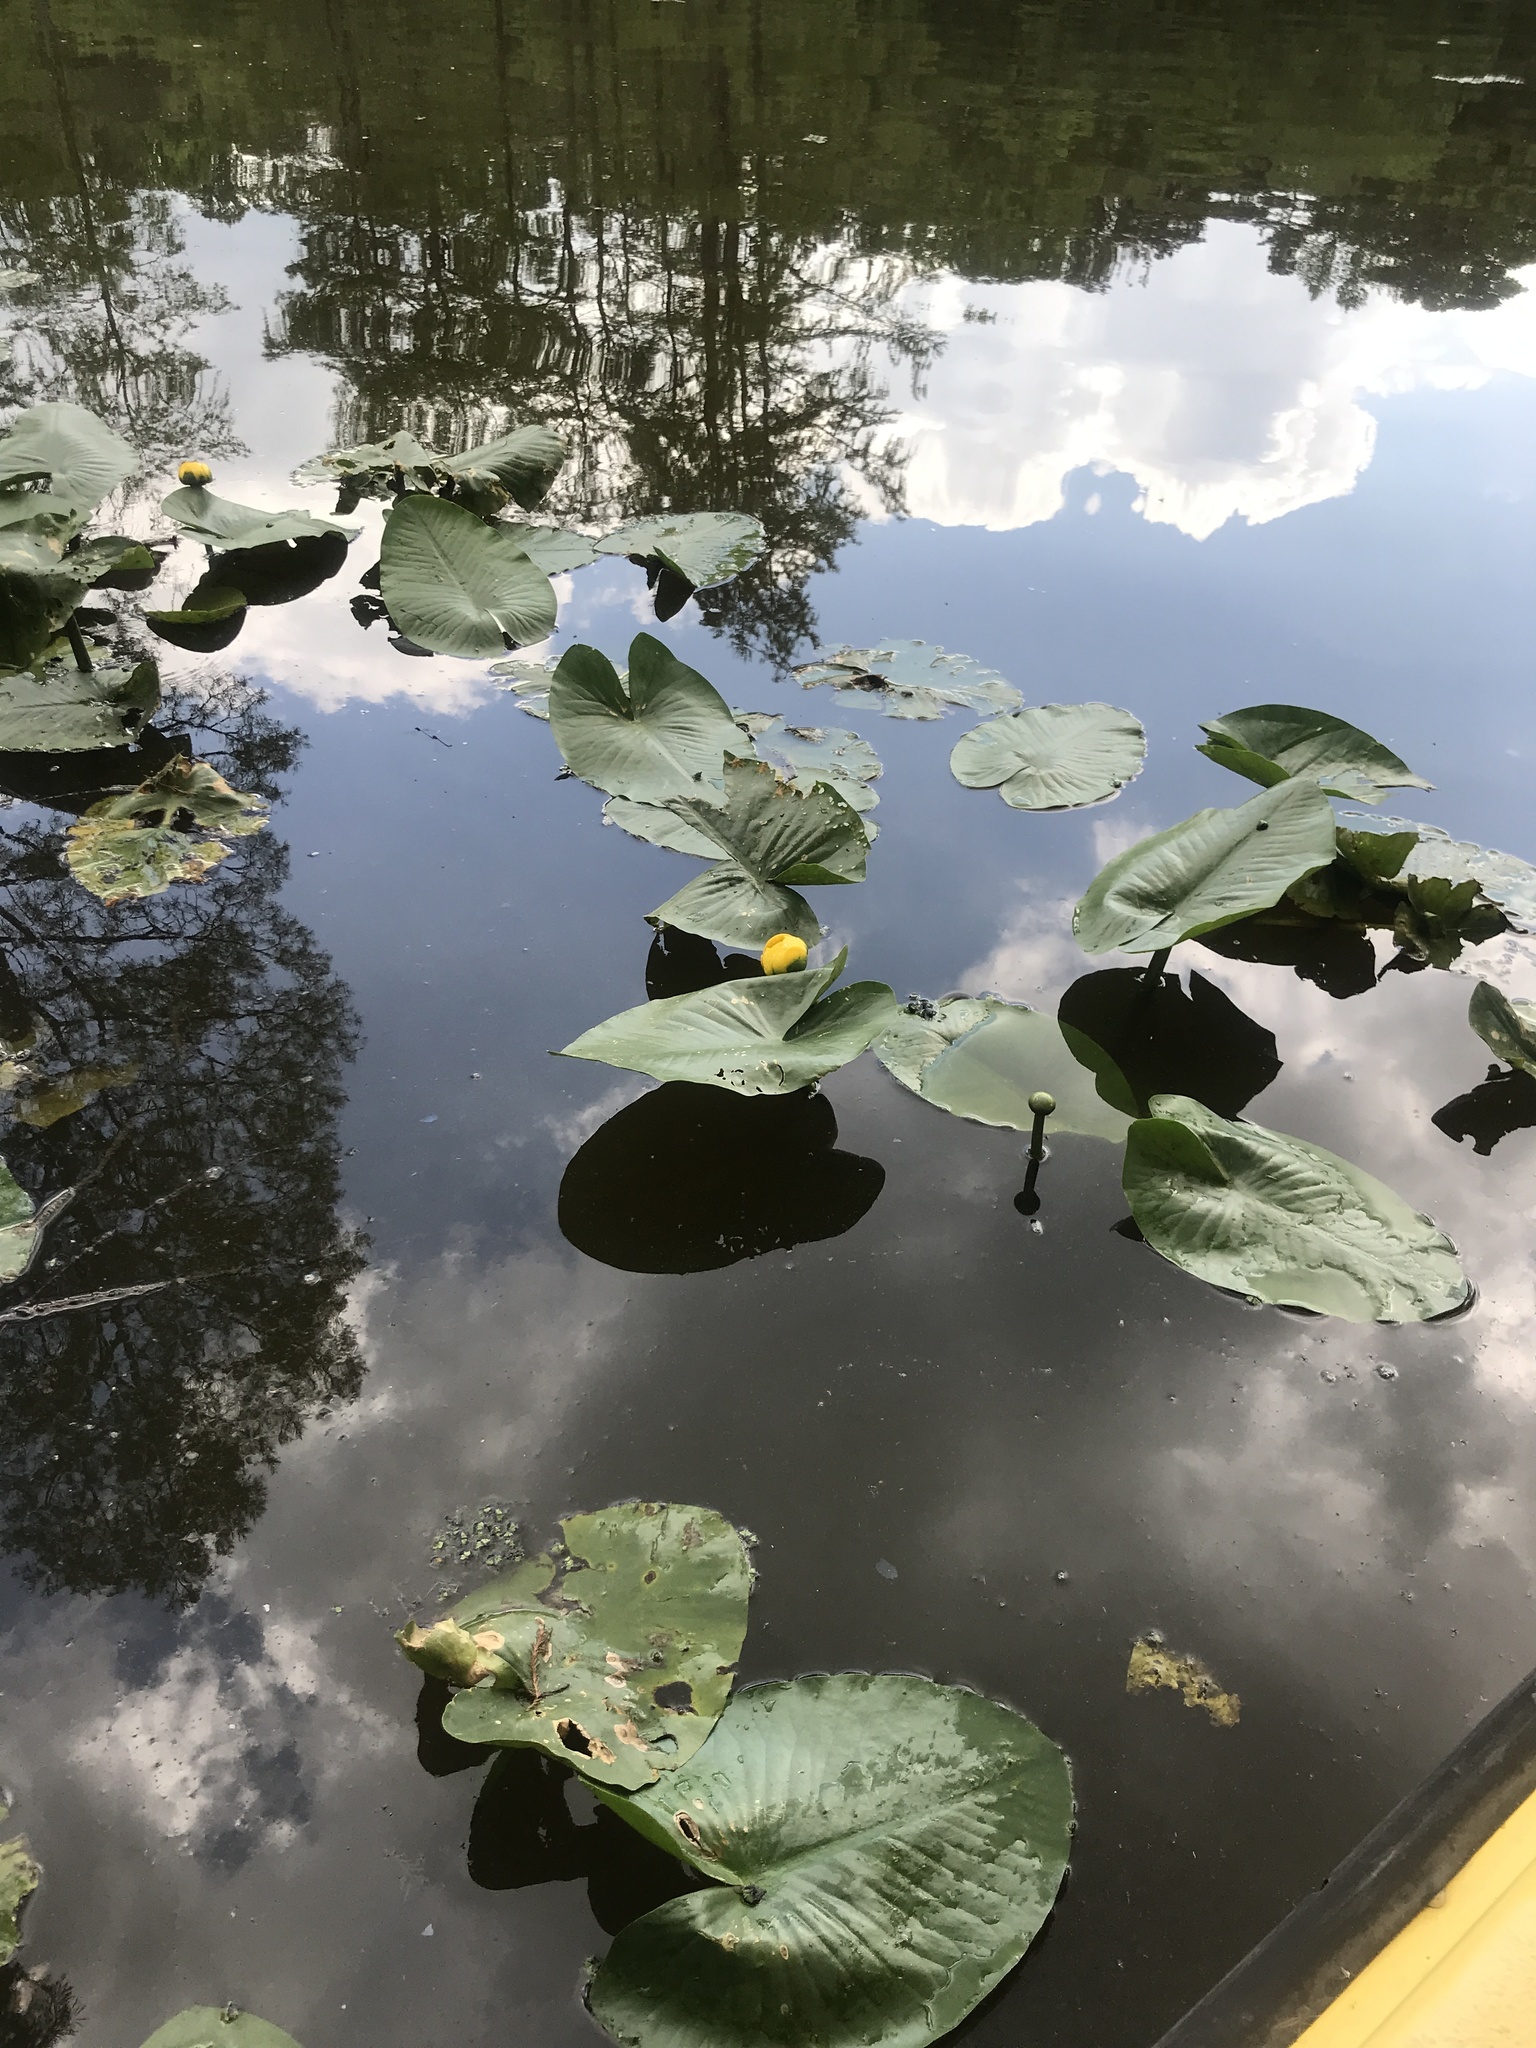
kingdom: Plantae
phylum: Tracheophyta
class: Magnoliopsida
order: Nymphaeales
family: Nymphaeaceae
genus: Nuphar
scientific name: Nuphar advena
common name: Spatter-dock
